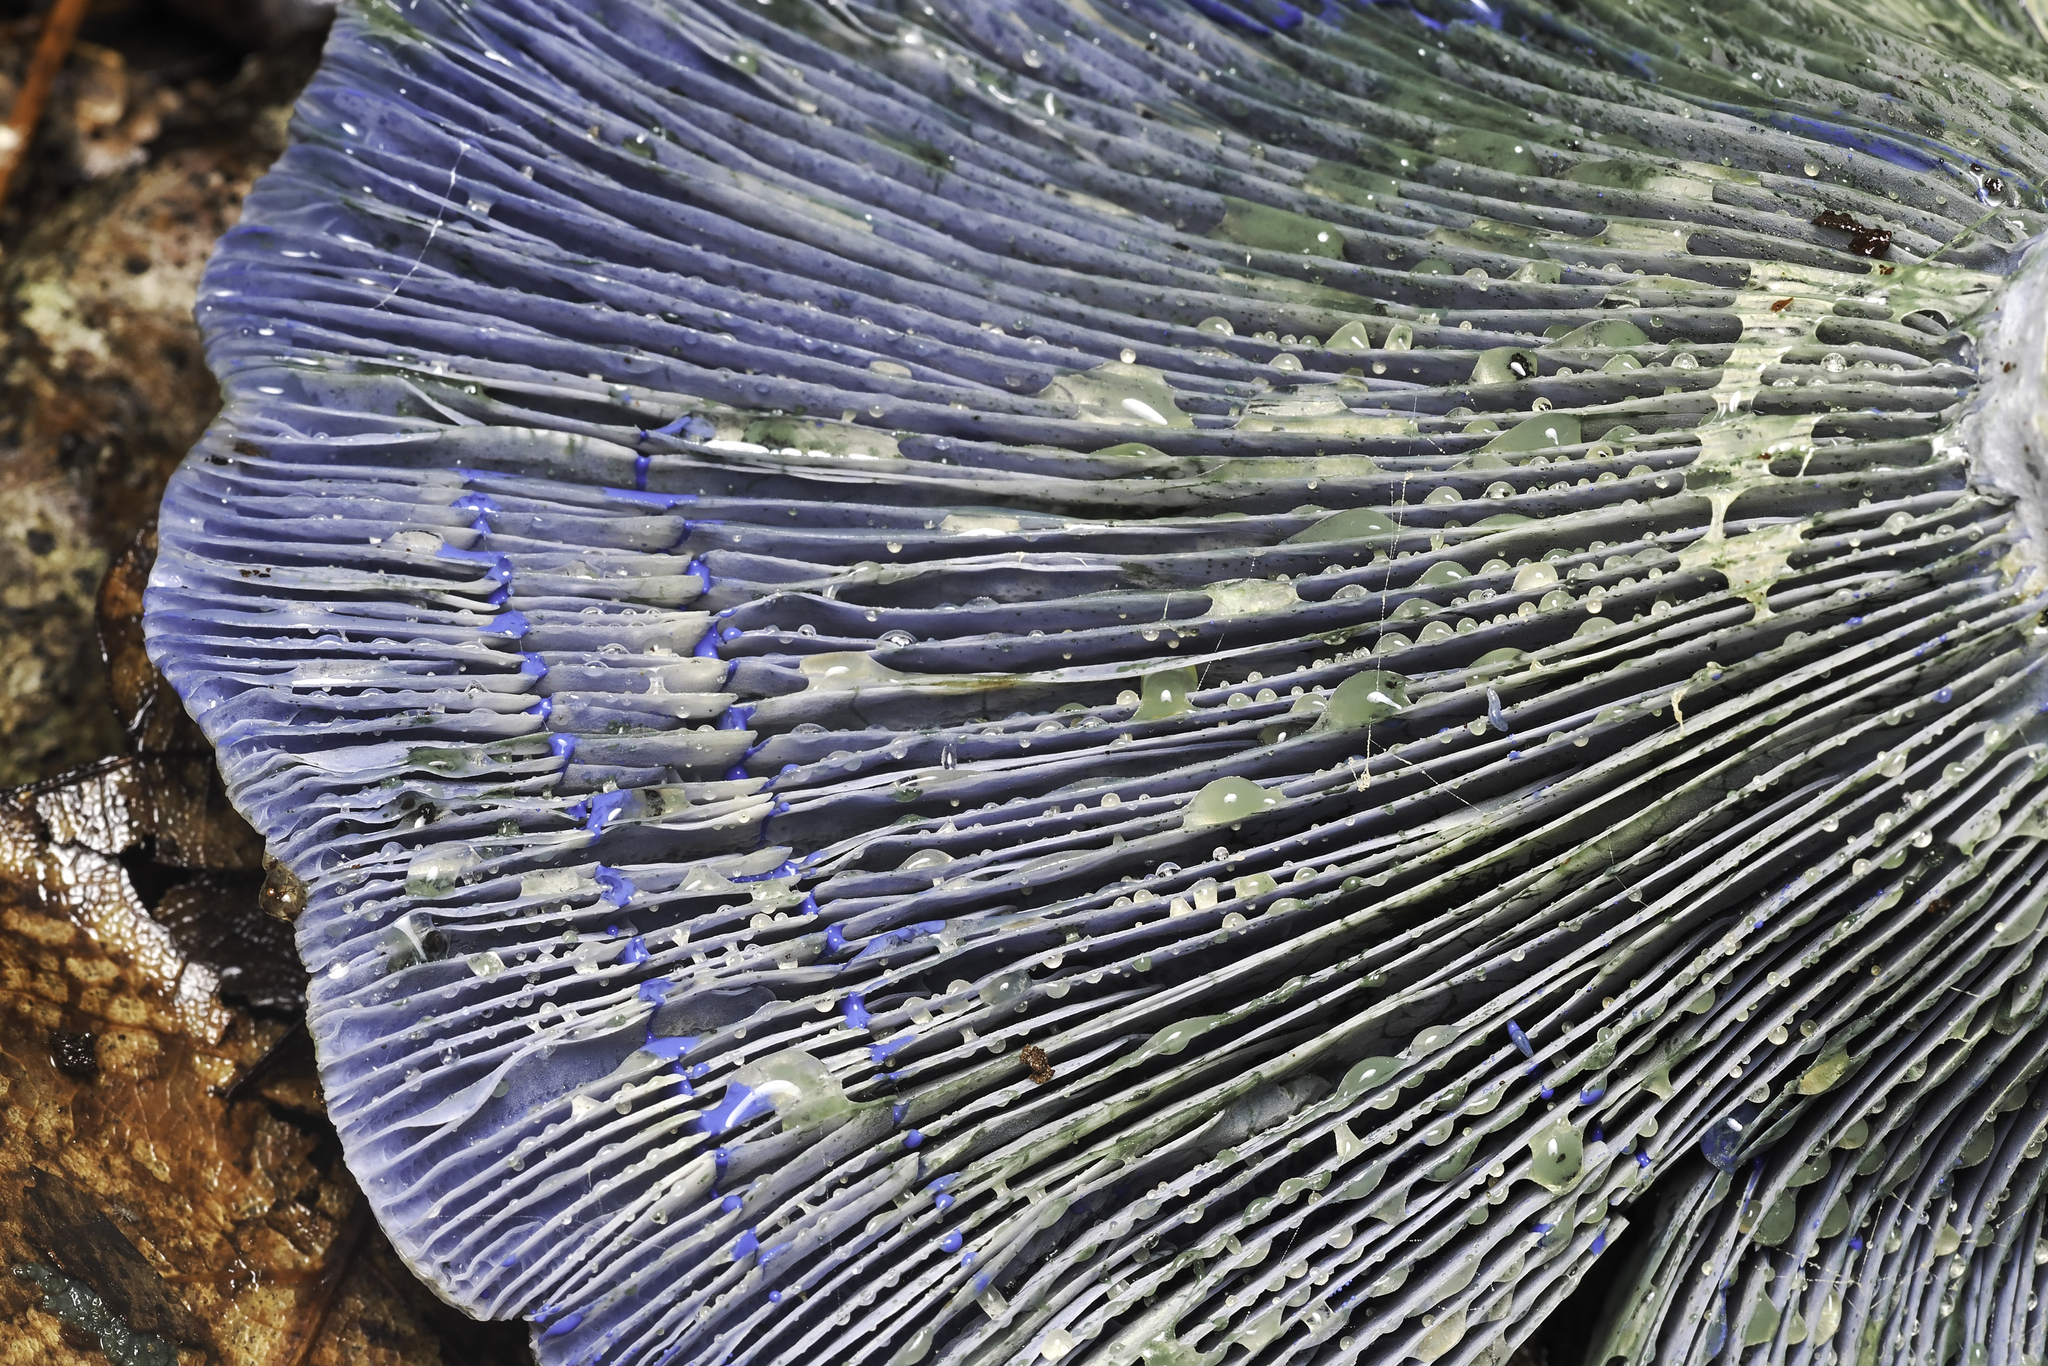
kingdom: Fungi
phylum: Basidiomycota
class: Agaricomycetes
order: Russulales
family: Russulaceae
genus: Lactarius
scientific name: Lactarius indigo
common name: Indigo milk cap
